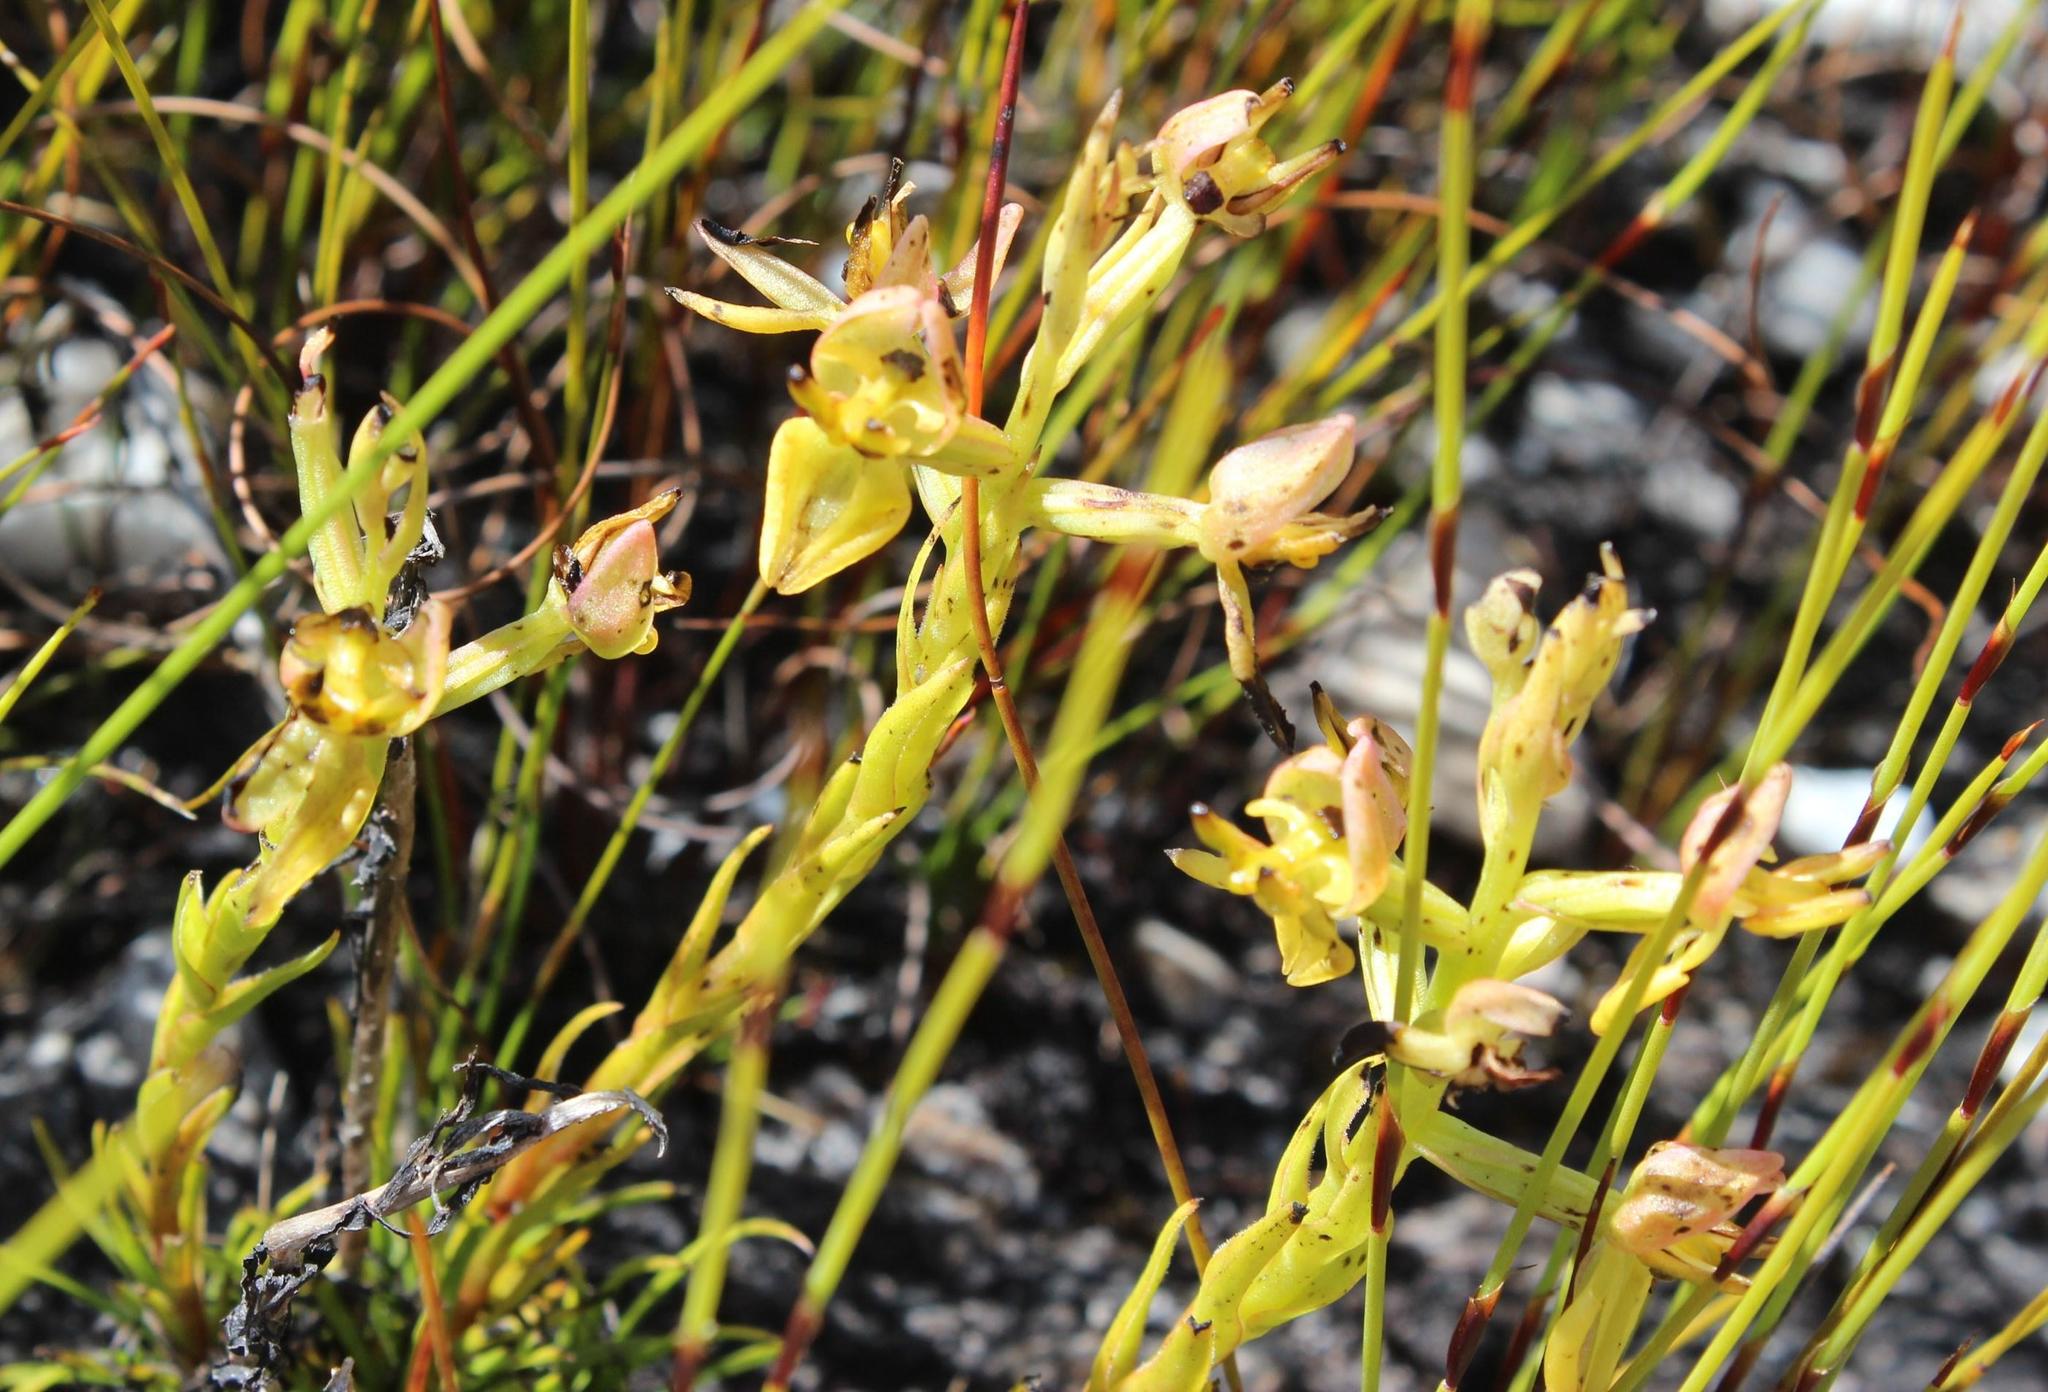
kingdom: Plantae
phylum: Tracheophyta
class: Liliopsida
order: Asparagales
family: Orchidaceae
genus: Ceratandra
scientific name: Ceratandra atrata
